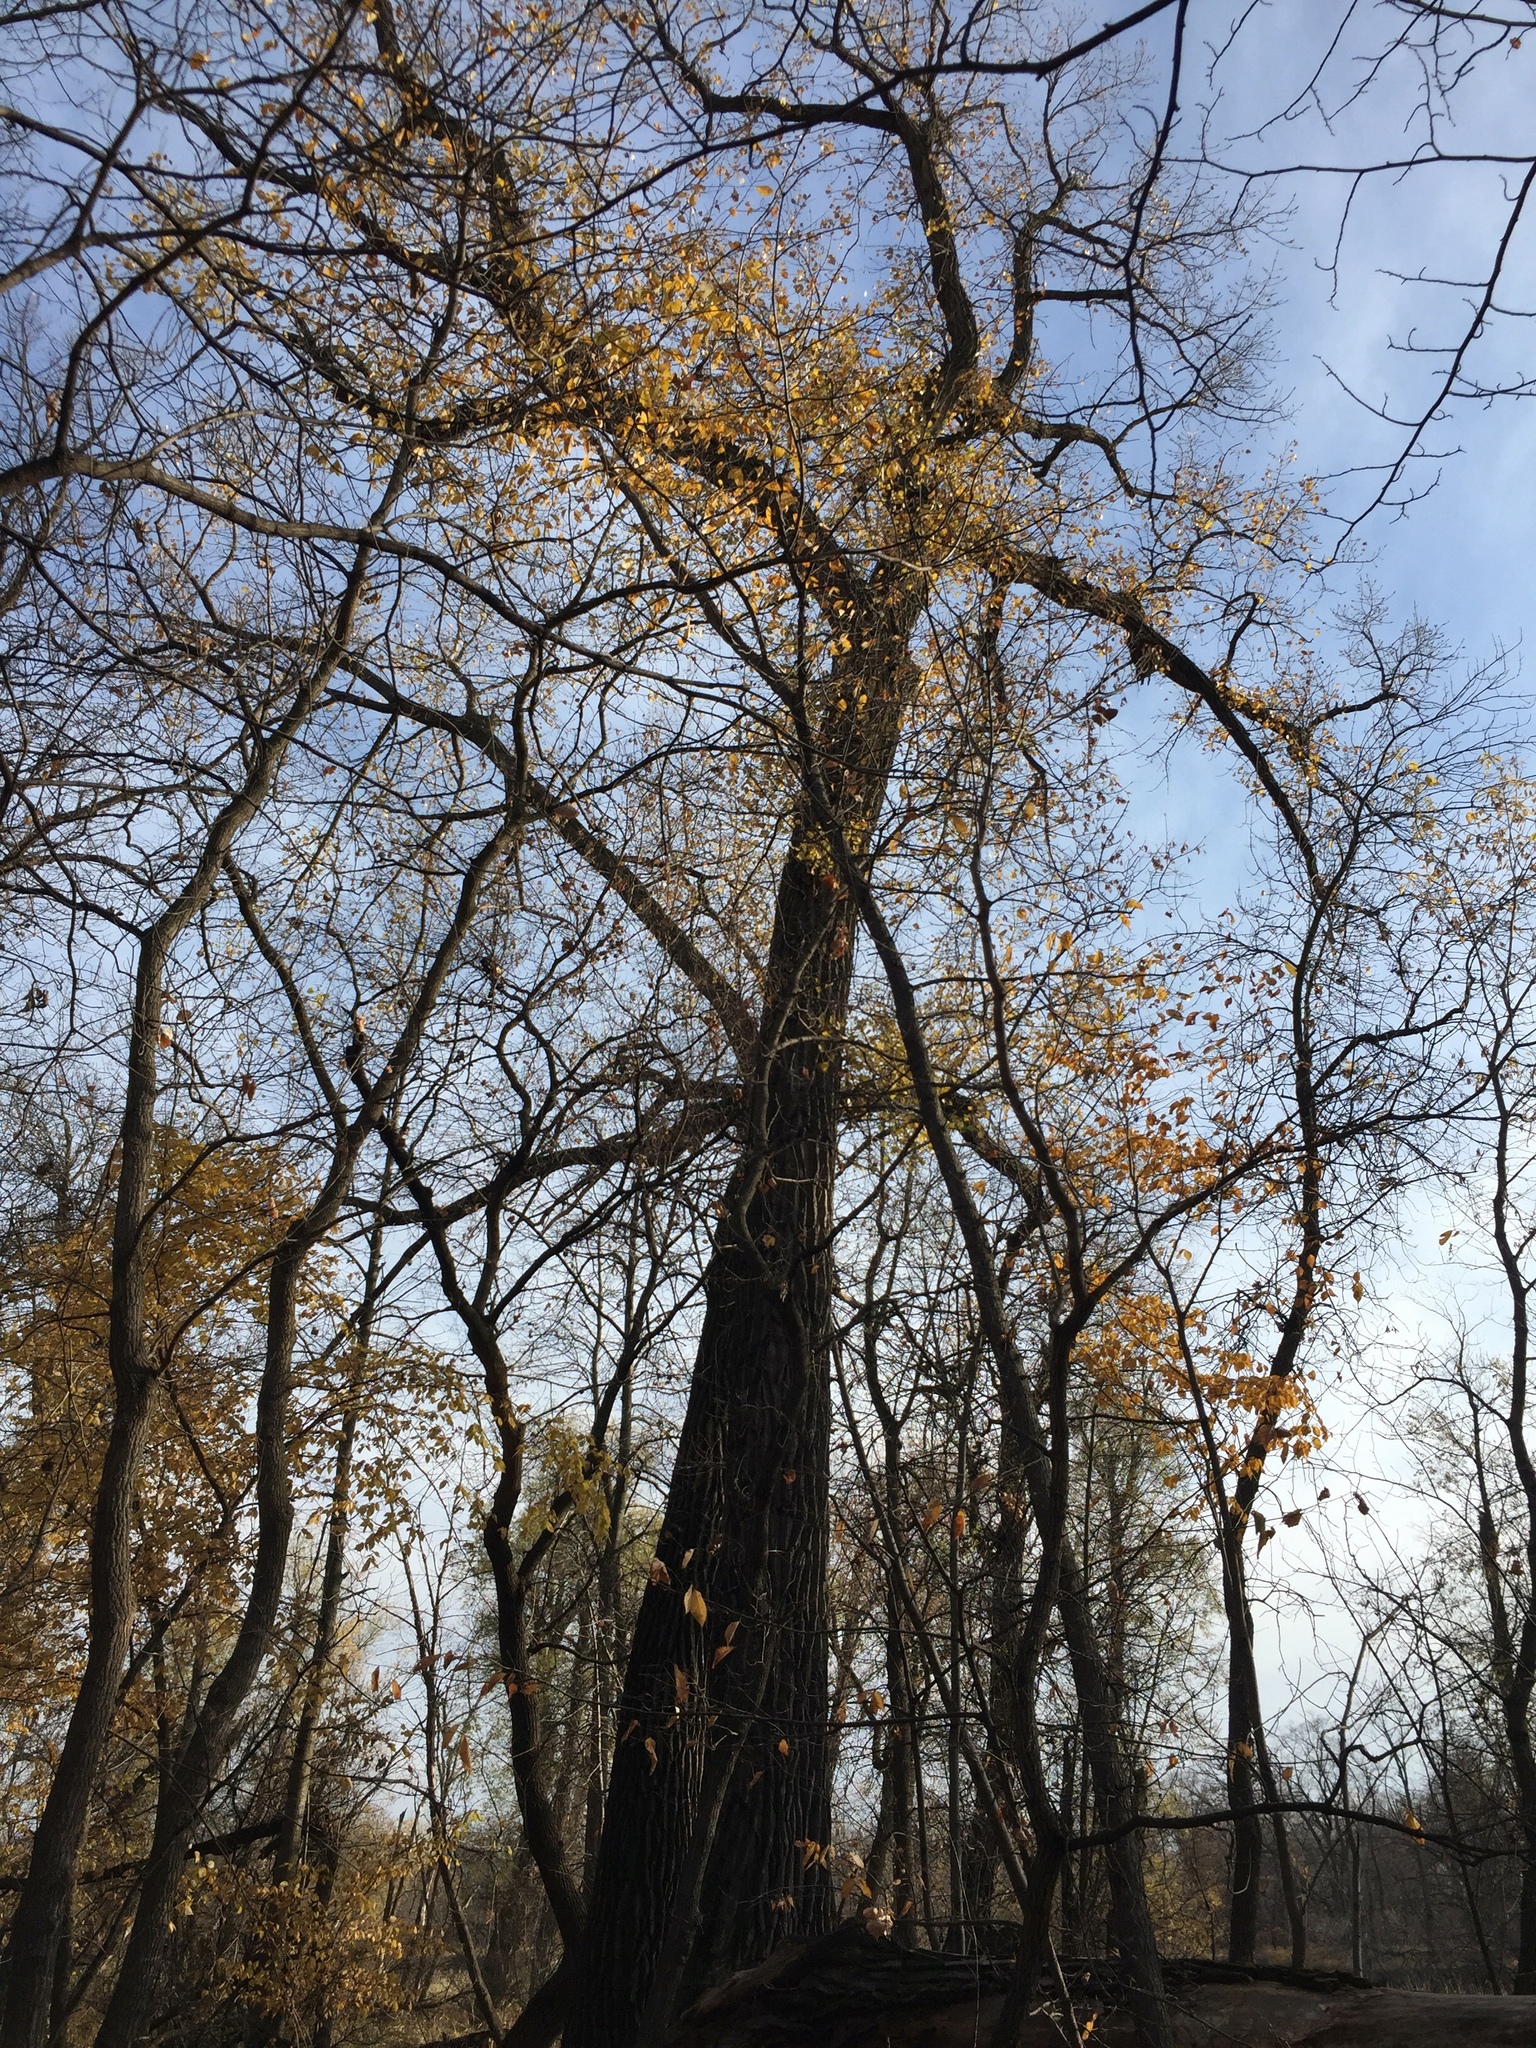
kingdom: Plantae
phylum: Tracheophyta
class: Magnoliopsida
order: Malpighiales
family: Salicaceae
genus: Populus
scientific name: Populus deltoides
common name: Eastern cottonwood
